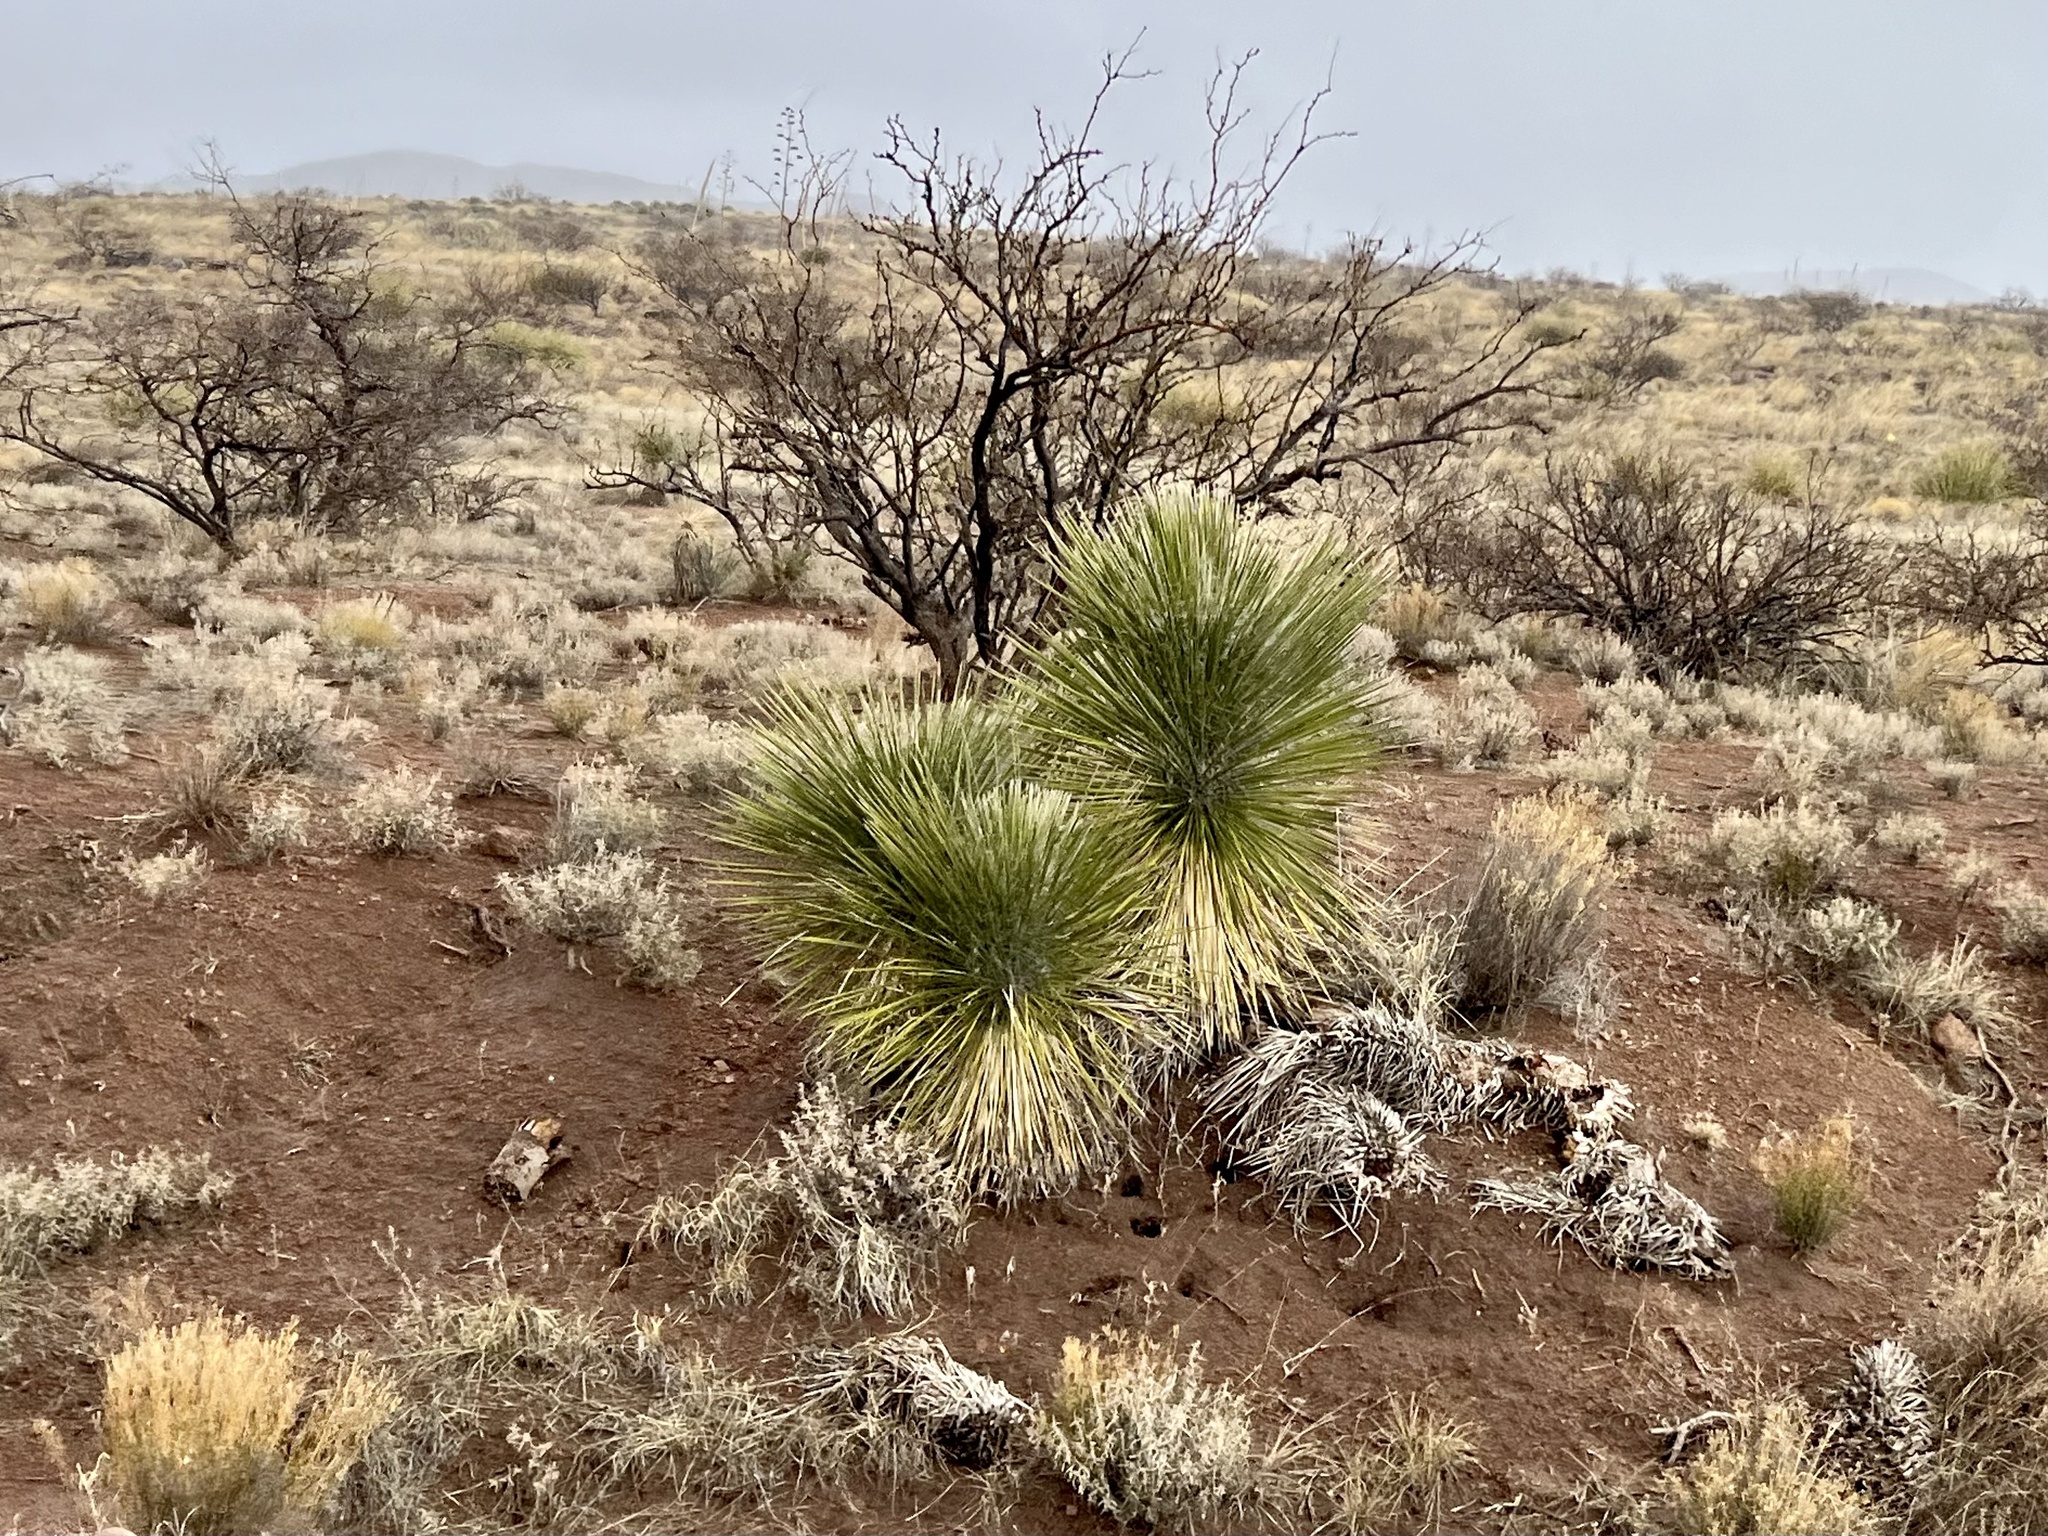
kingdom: Plantae
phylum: Tracheophyta
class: Liliopsida
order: Asparagales
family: Asparagaceae
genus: Yucca
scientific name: Yucca elata
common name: Palmella
